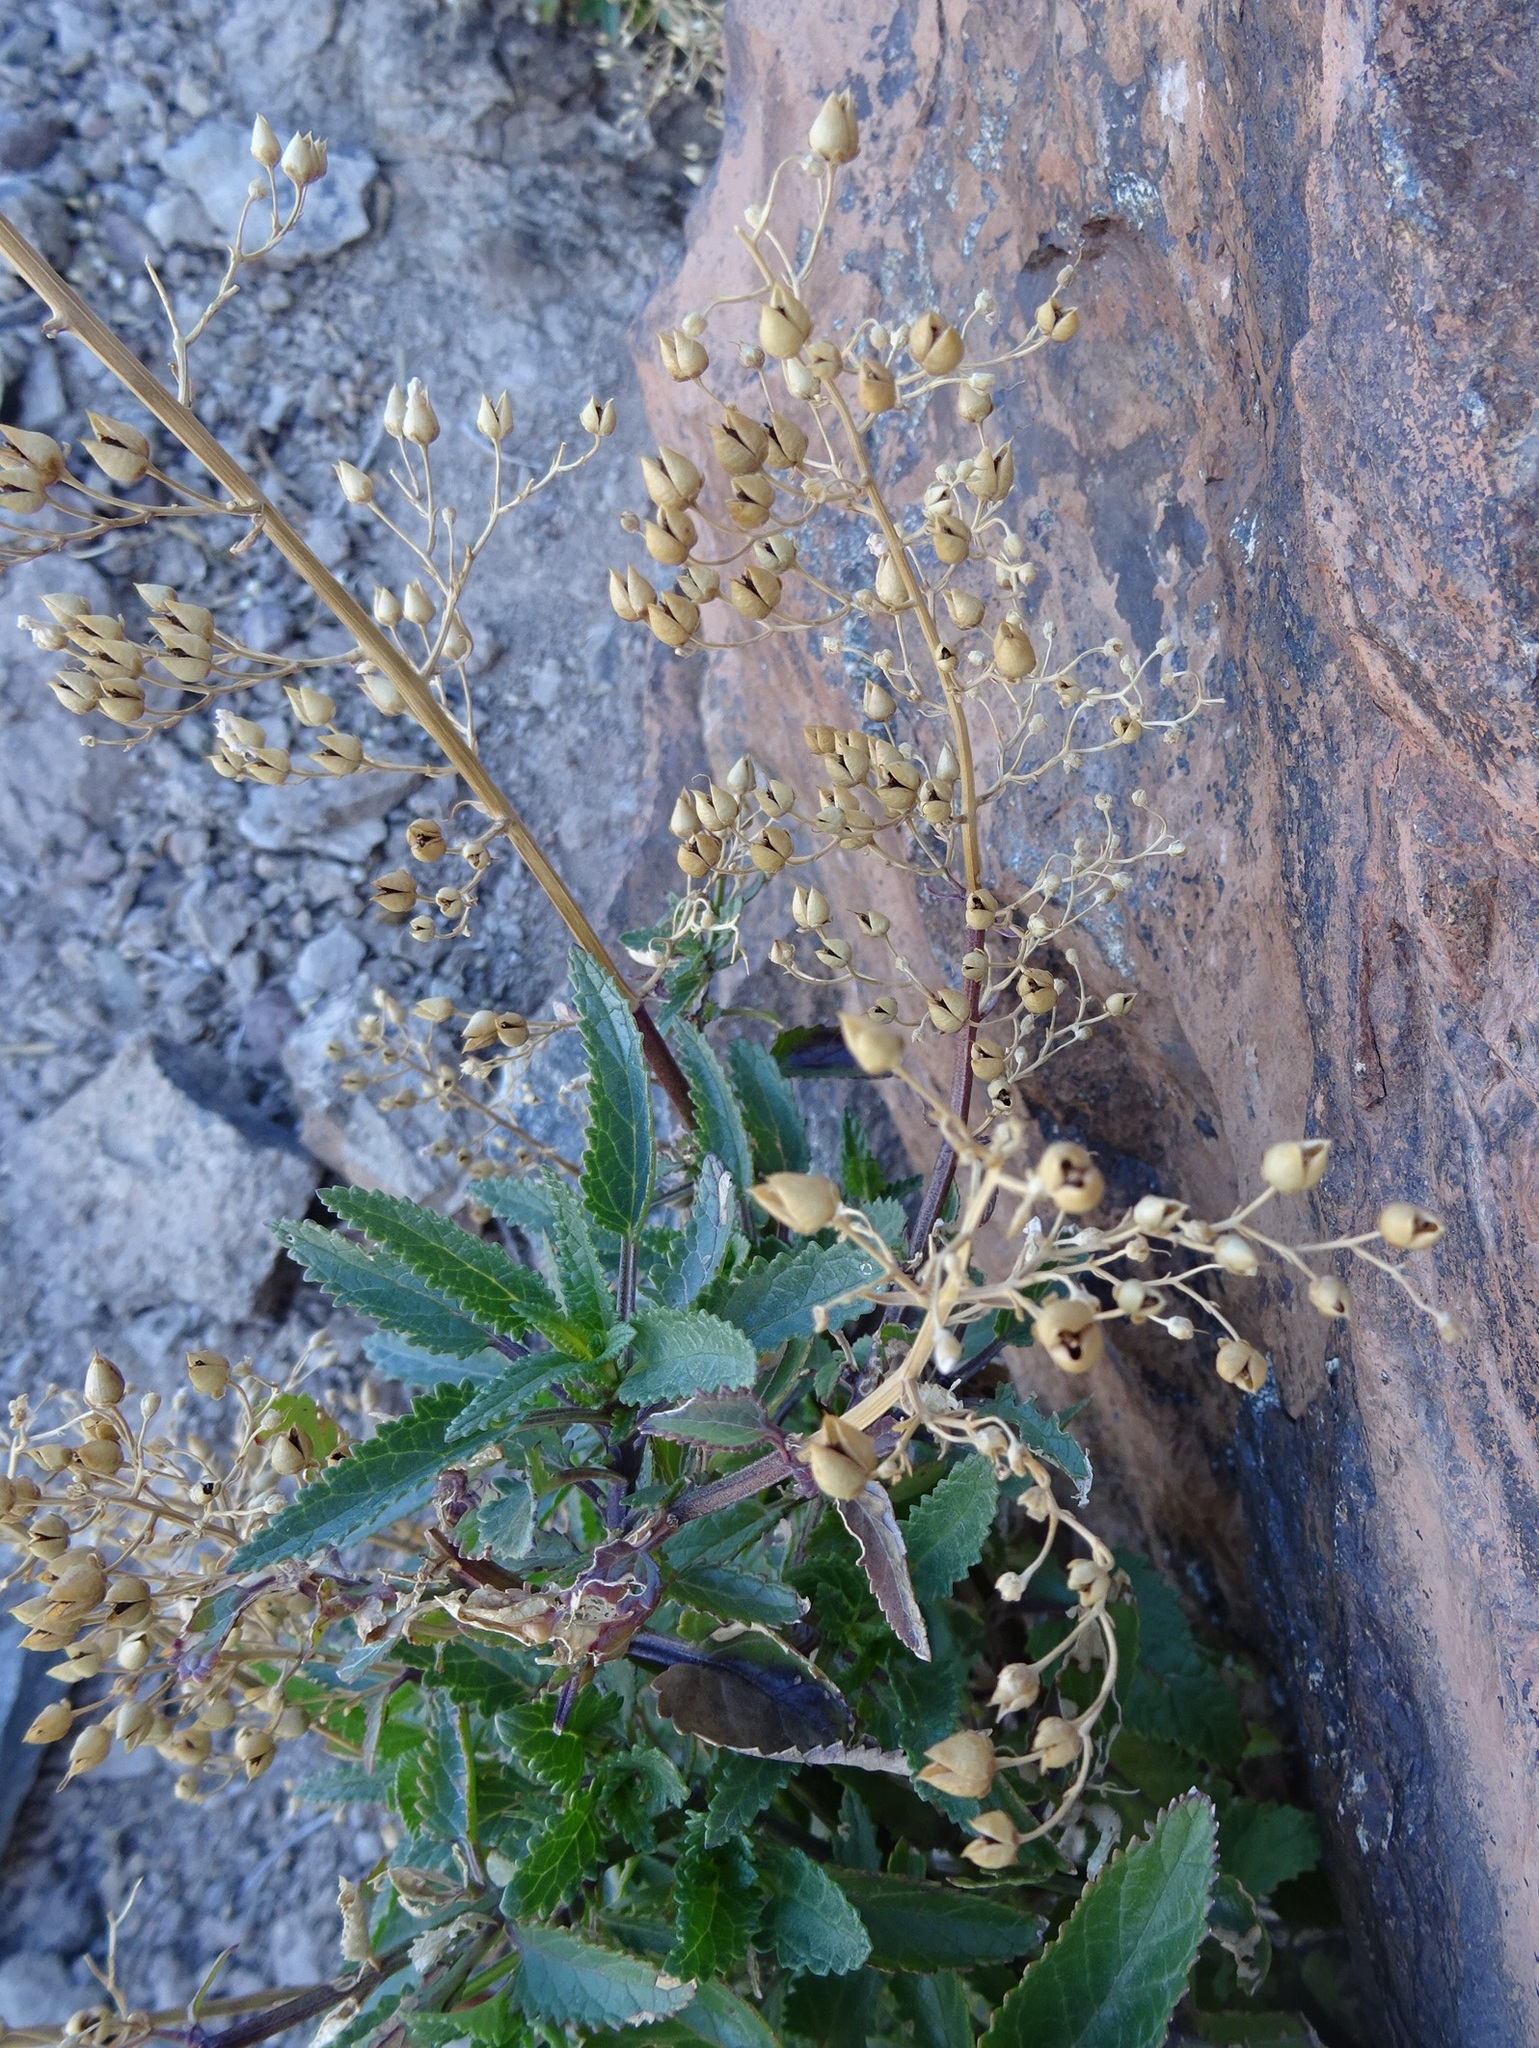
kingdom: Plantae
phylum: Tracheophyta
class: Magnoliopsida
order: Lamiales
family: Scrophulariaceae
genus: Scrophularia
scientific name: Scrophularia glabrata
